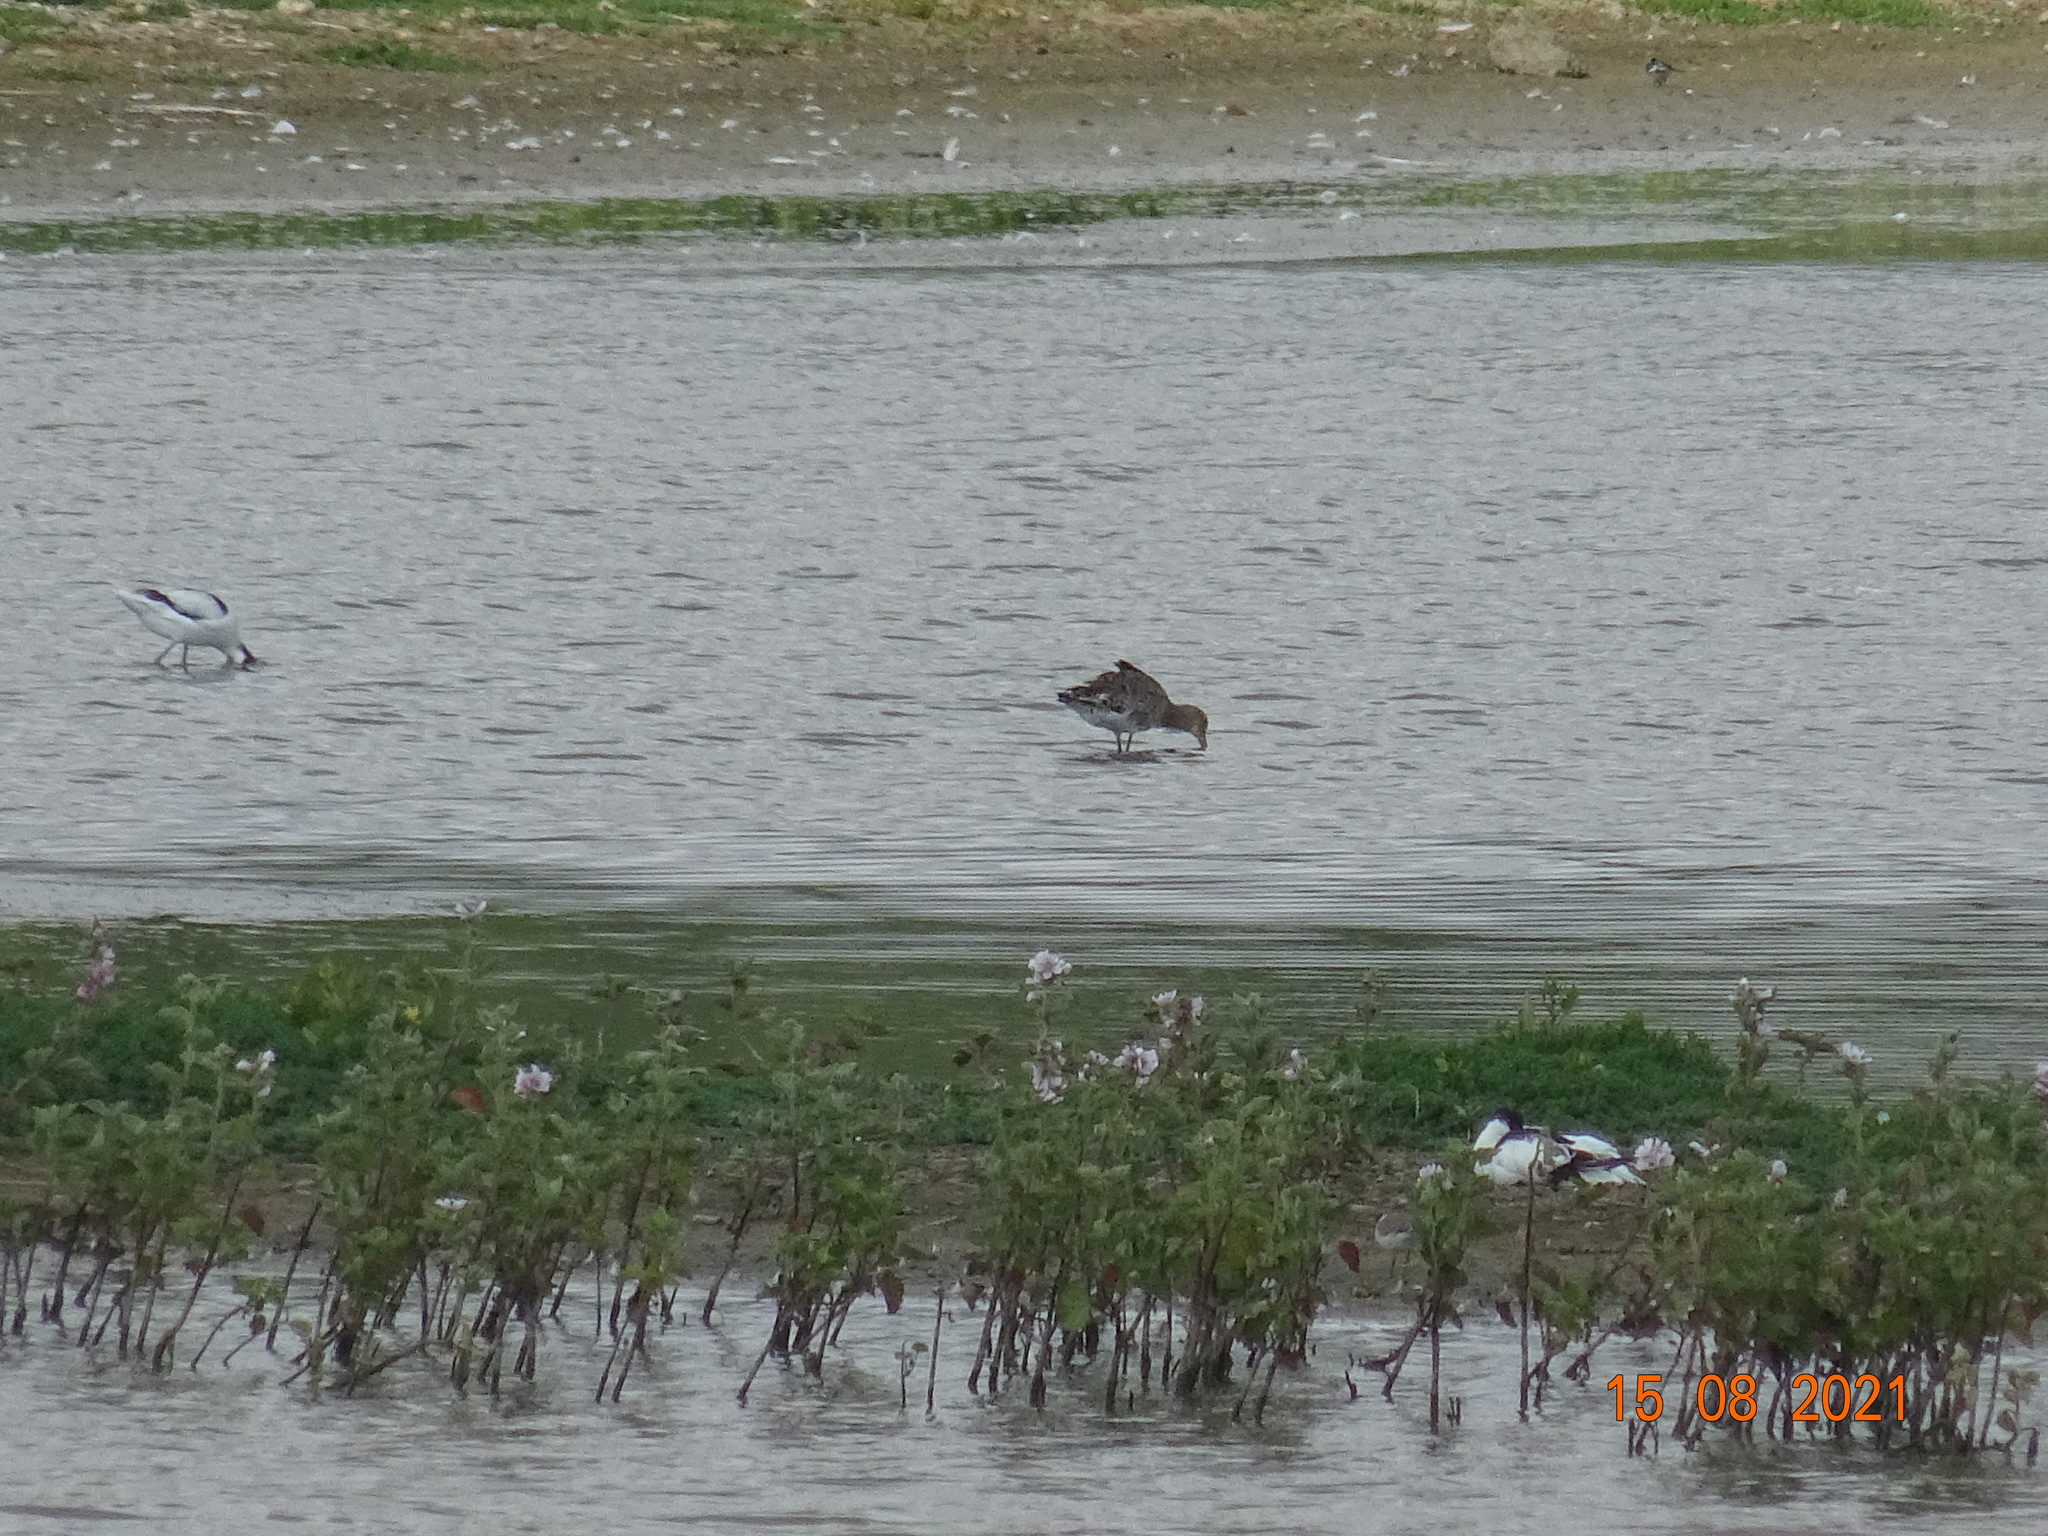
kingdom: Animalia
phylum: Chordata
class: Aves
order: Charadriiformes
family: Scolopacidae
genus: Limosa
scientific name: Limosa limosa
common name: Black-tailed godwit
